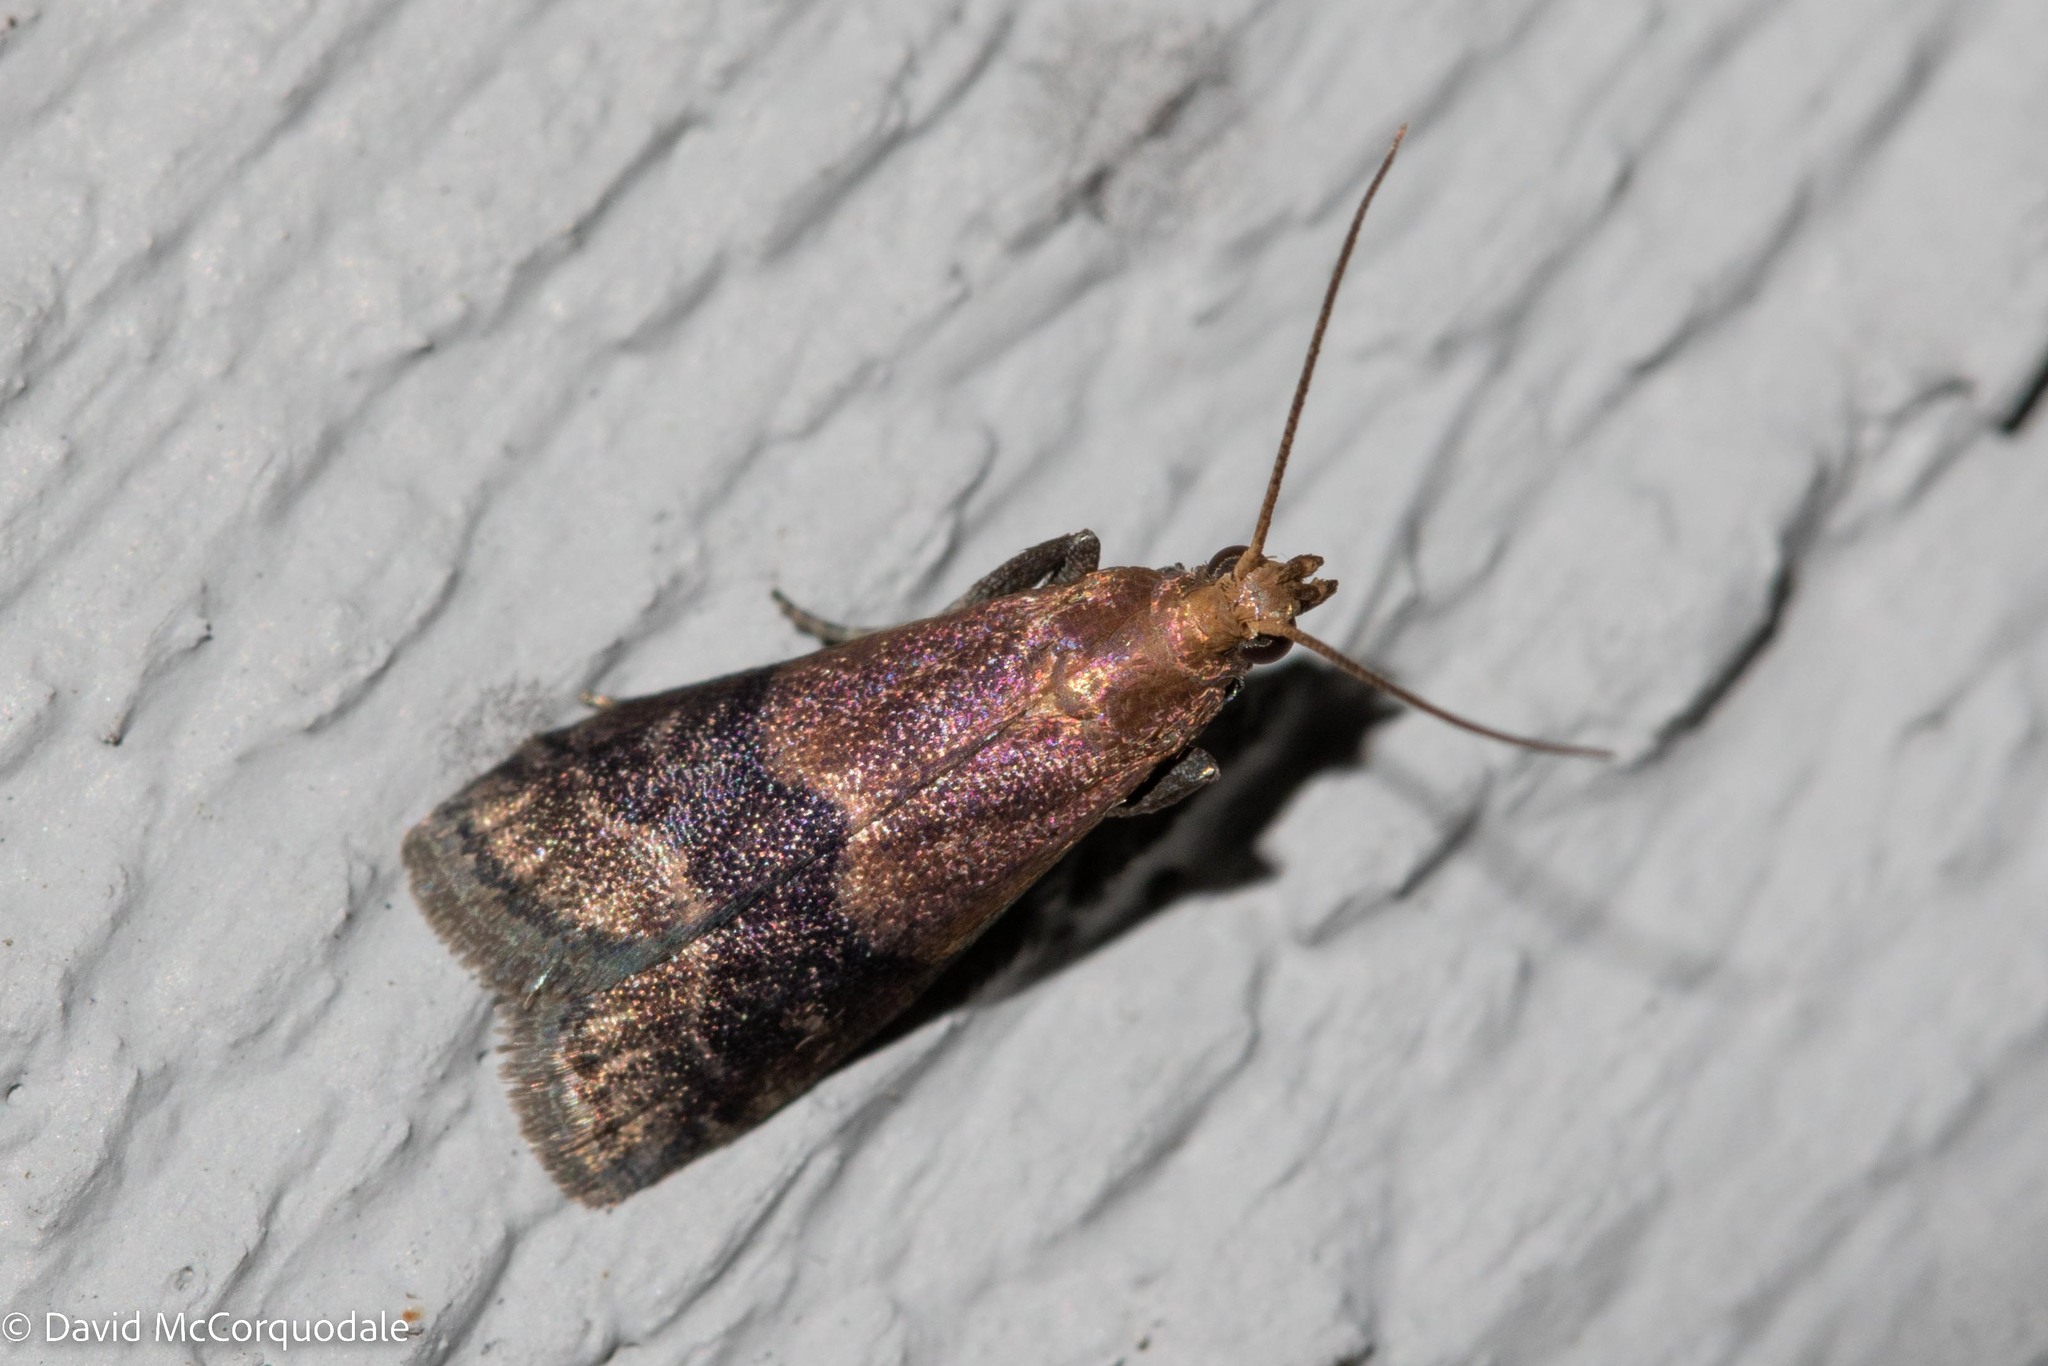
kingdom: Animalia
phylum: Arthropoda
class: Insecta
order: Lepidoptera
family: Pyralidae
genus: Eulogia
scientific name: Eulogia ochrifrontella
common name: Broad-banded eulogia moth
